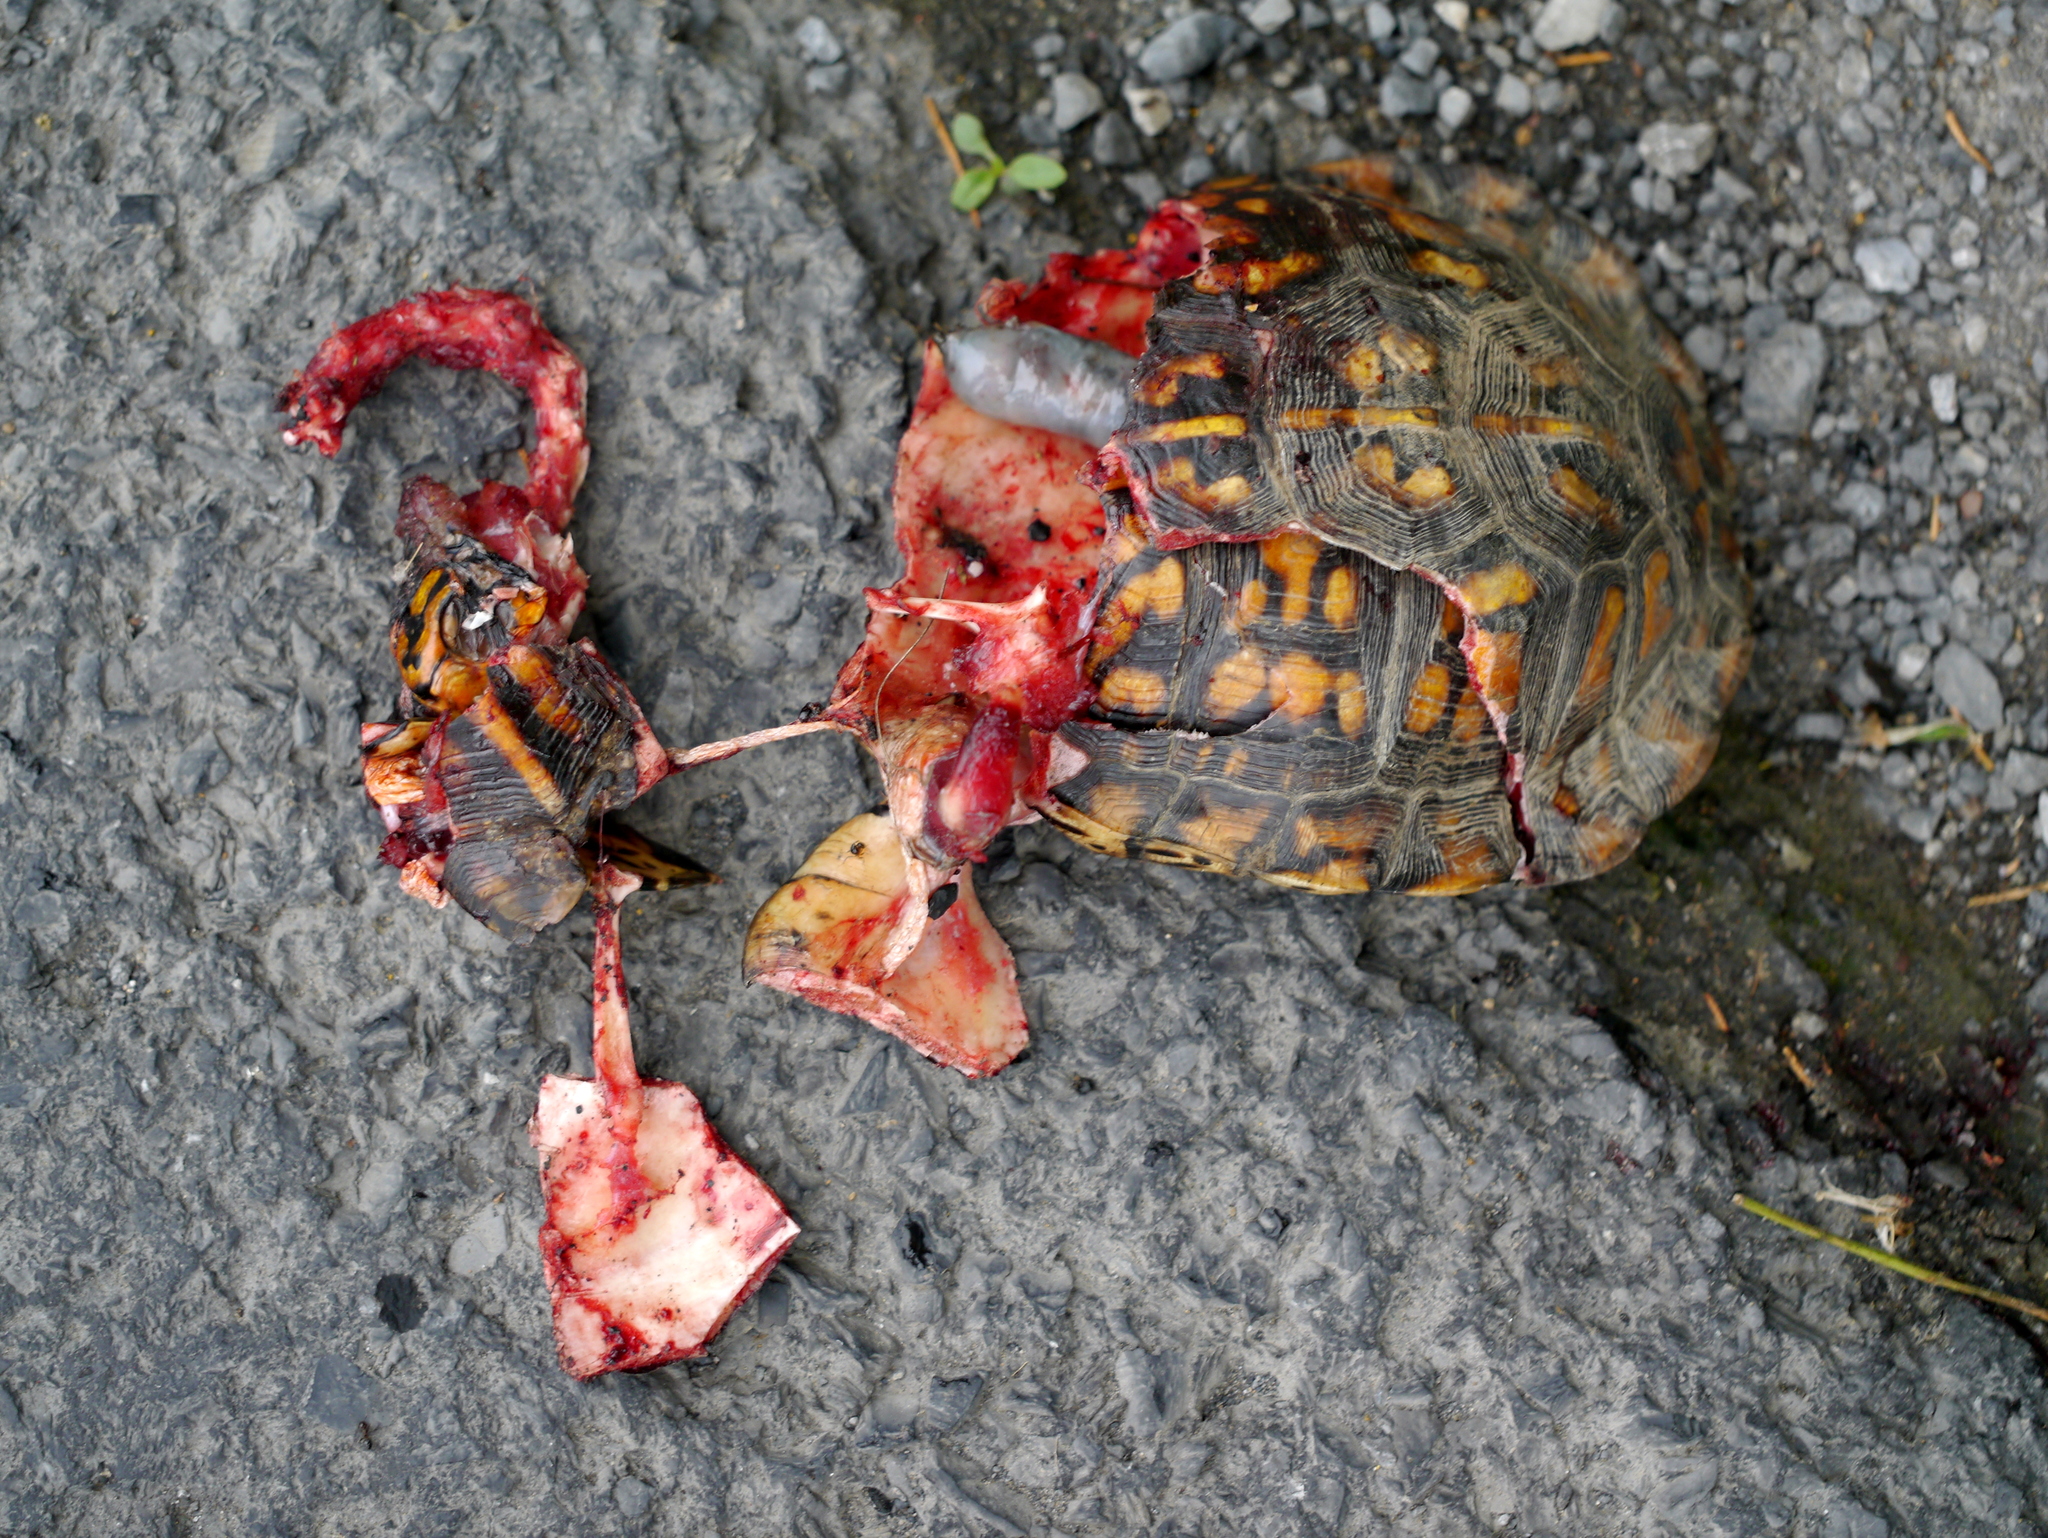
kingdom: Animalia
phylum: Chordata
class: Testudines
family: Emydidae
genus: Terrapene
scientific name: Terrapene carolina
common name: Common box turtle
